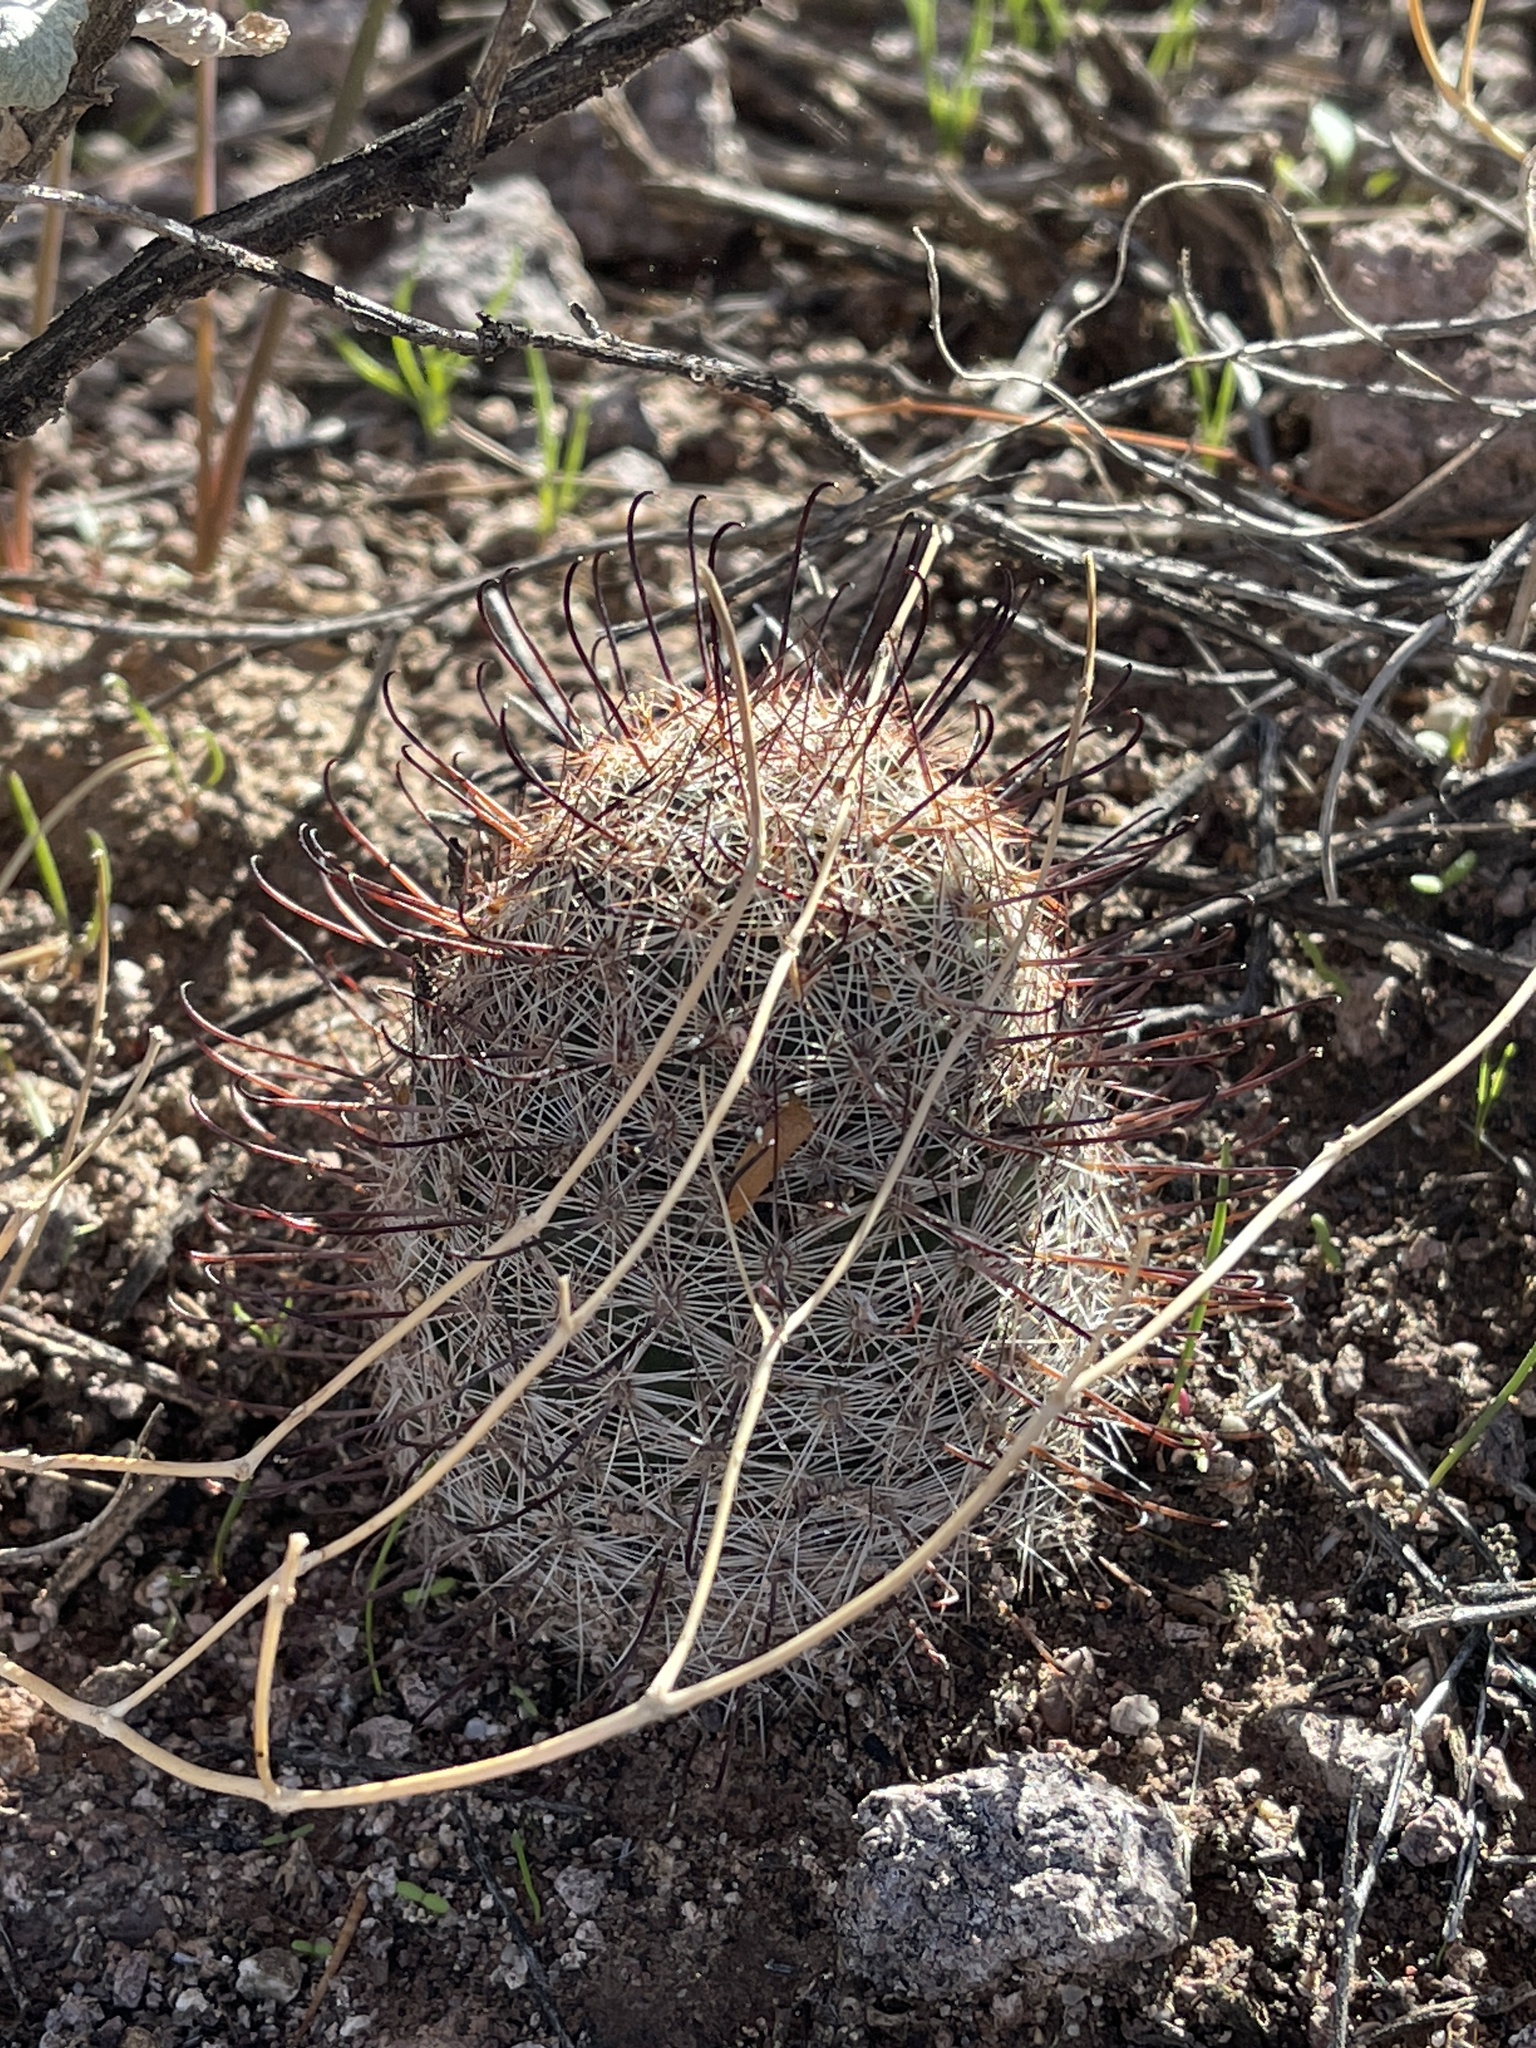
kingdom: Plantae
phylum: Tracheophyta
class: Magnoliopsida
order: Caryophyllales
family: Cactaceae
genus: Cochemiea
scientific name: Cochemiea grahamii
